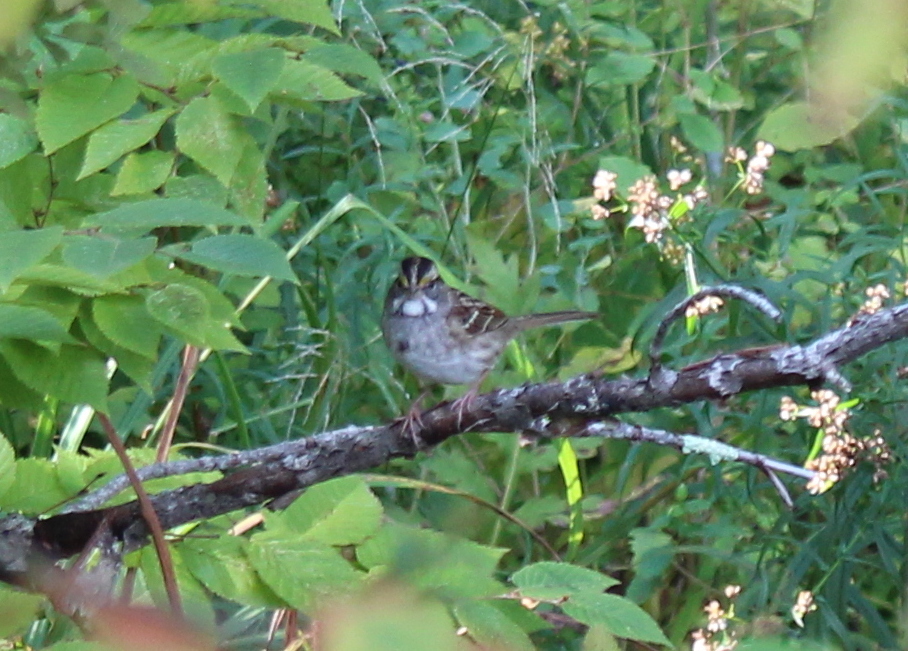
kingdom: Animalia
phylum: Chordata
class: Aves
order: Passeriformes
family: Passerellidae
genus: Zonotrichia
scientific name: Zonotrichia albicollis
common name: White-throated sparrow
